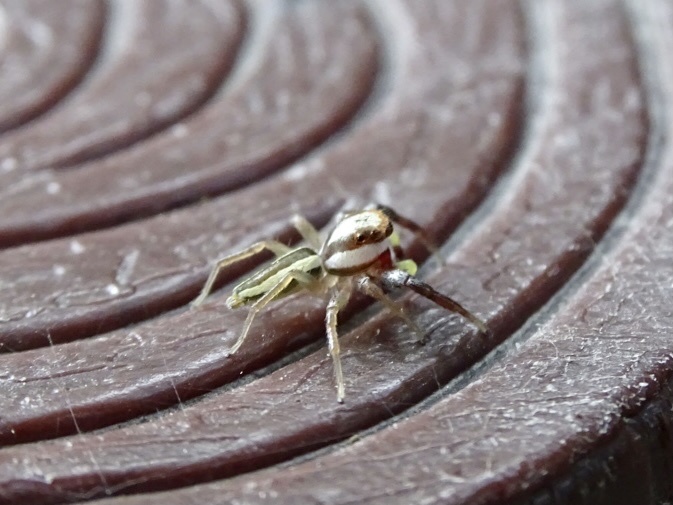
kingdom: Animalia
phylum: Arthropoda
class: Arachnida
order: Araneae
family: Salticidae
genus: Epocilla
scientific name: Epocilla blairei
